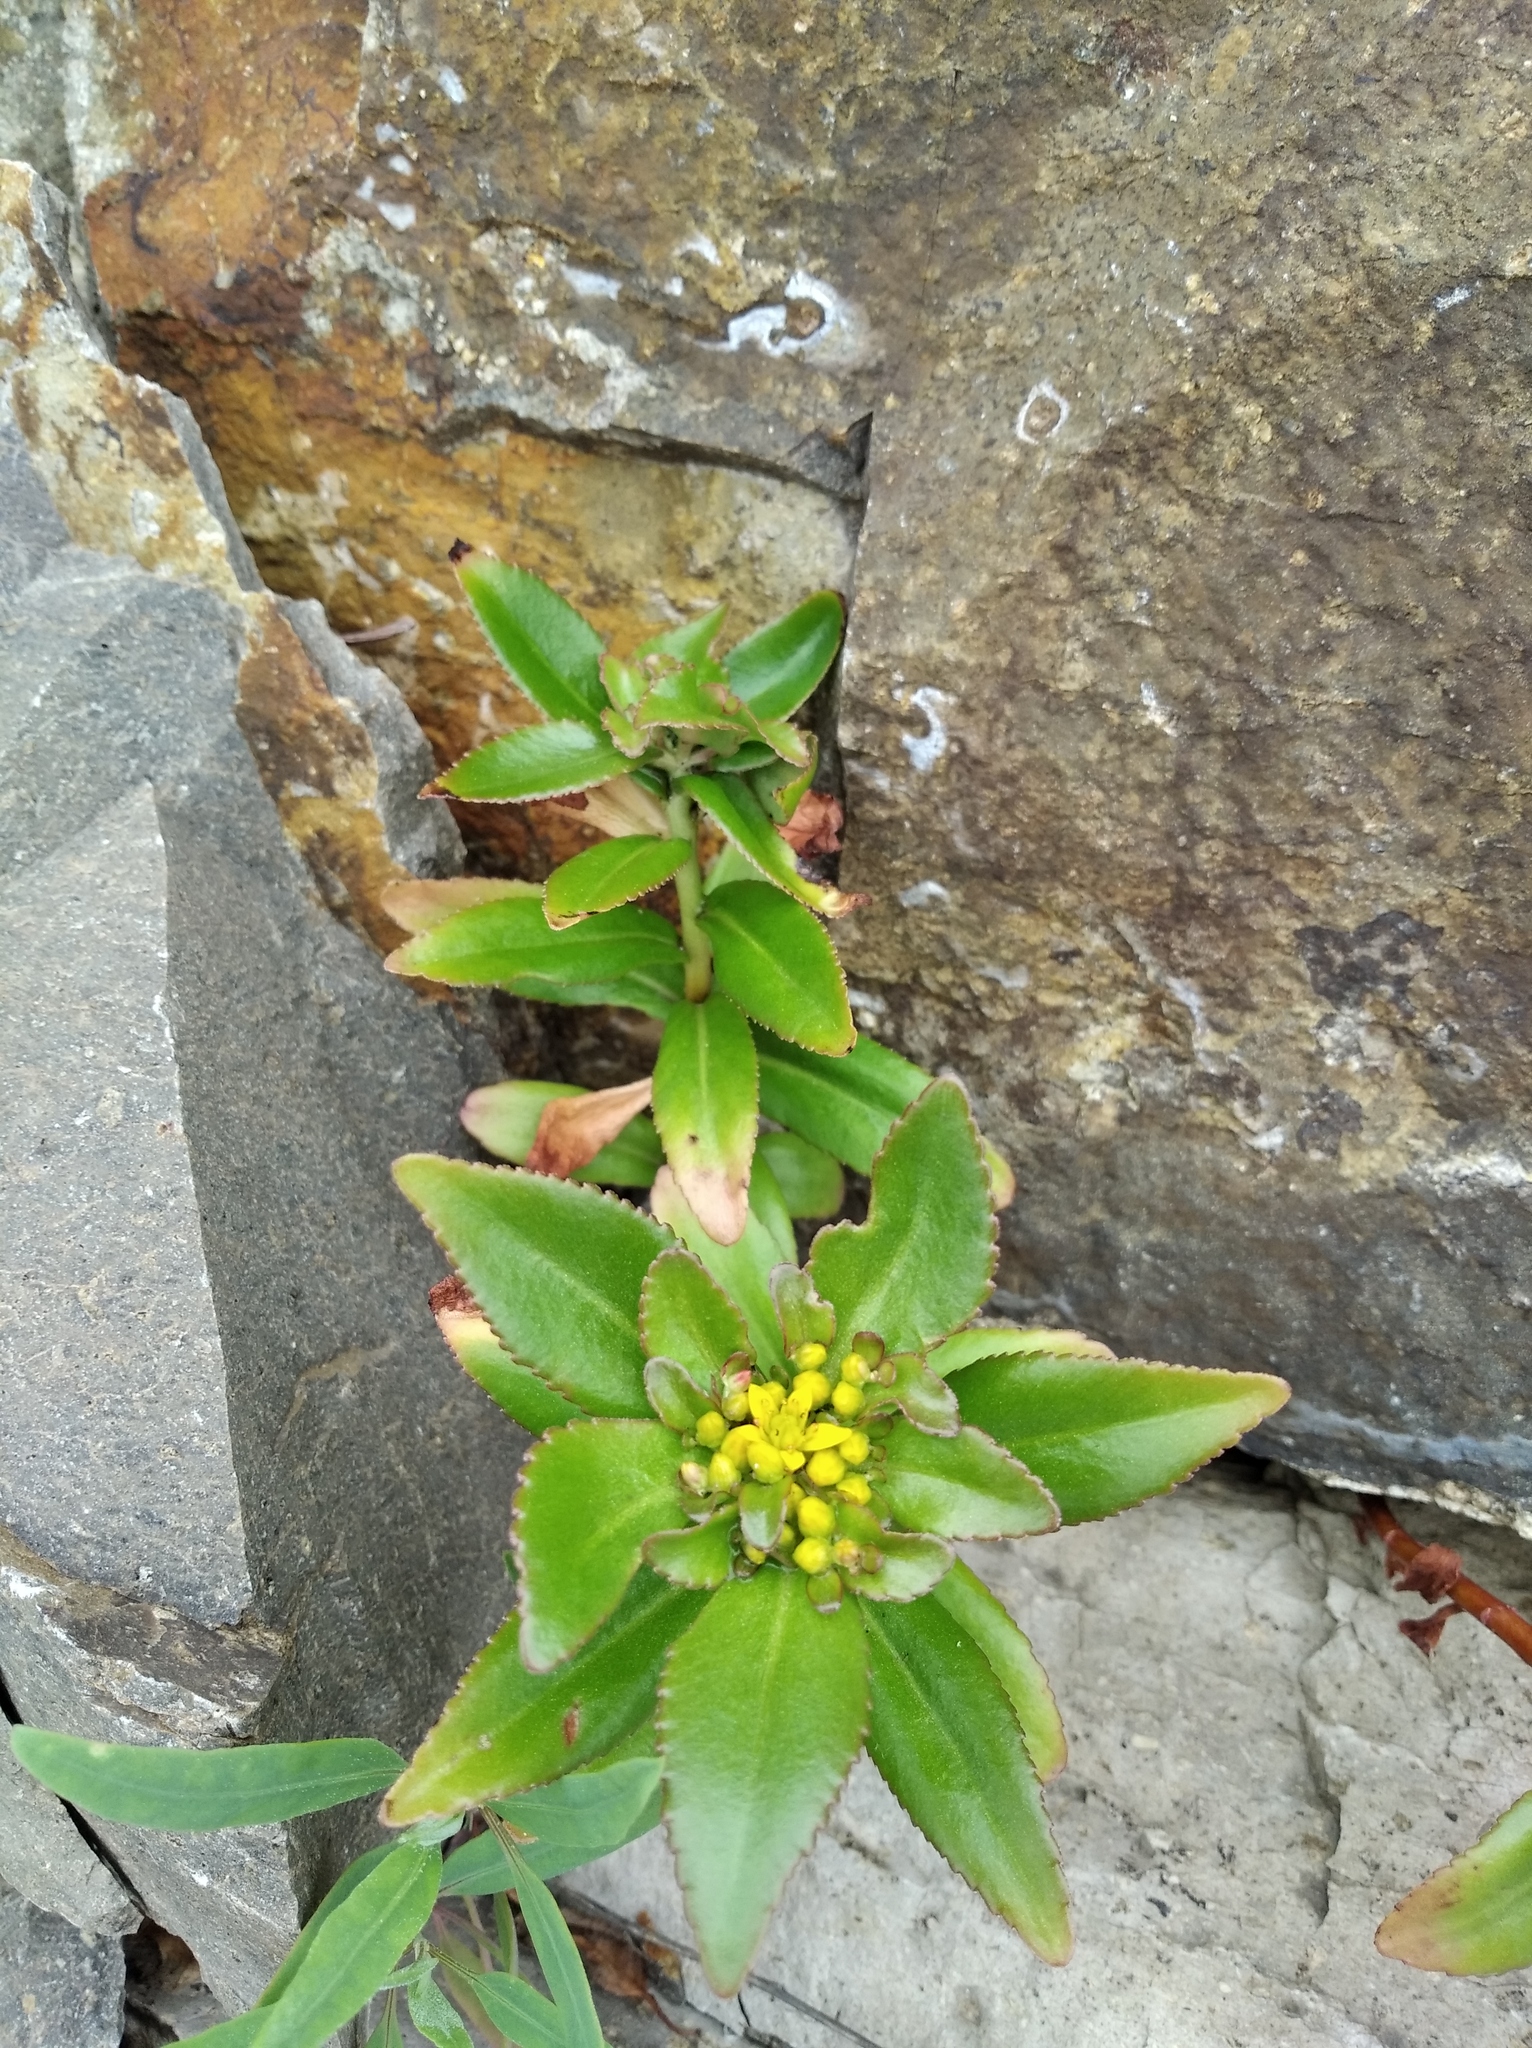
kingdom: Plantae
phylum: Tracheophyta
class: Magnoliopsida
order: Saxifragales
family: Crassulaceae
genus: Phedimus
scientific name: Phedimus aizoon
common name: Orpin aizoon
